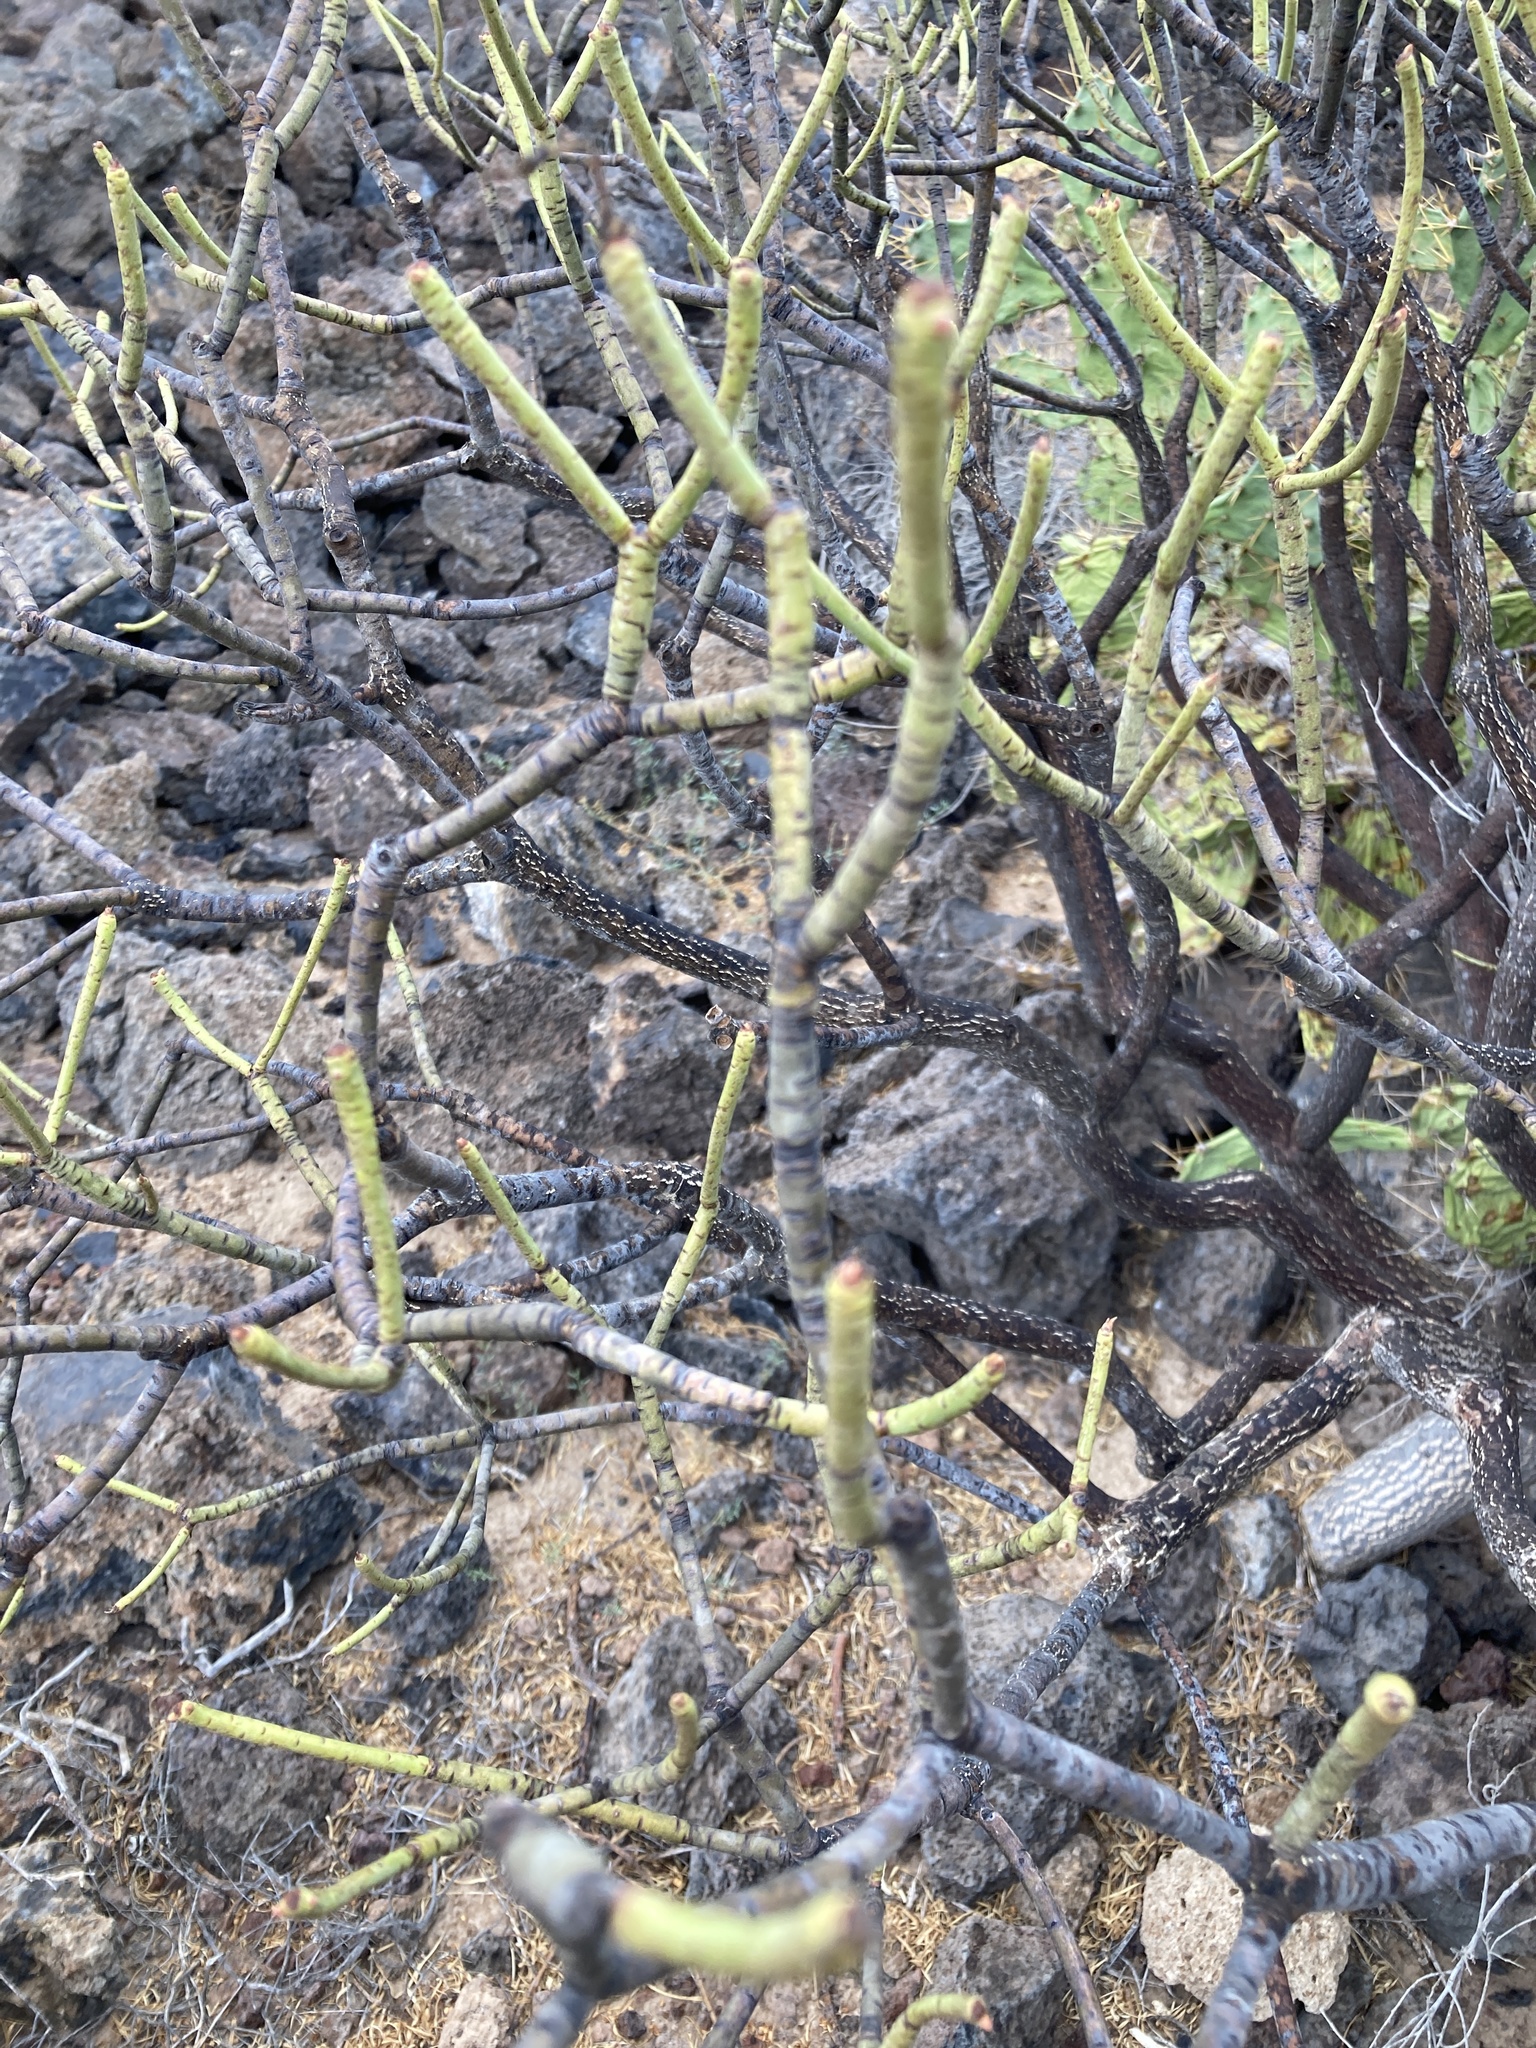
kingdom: Plantae
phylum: Tracheophyta
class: Magnoliopsida
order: Malpighiales
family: Euphorbiaceae
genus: Euphorbia
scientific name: Euphorbia lamarckii
